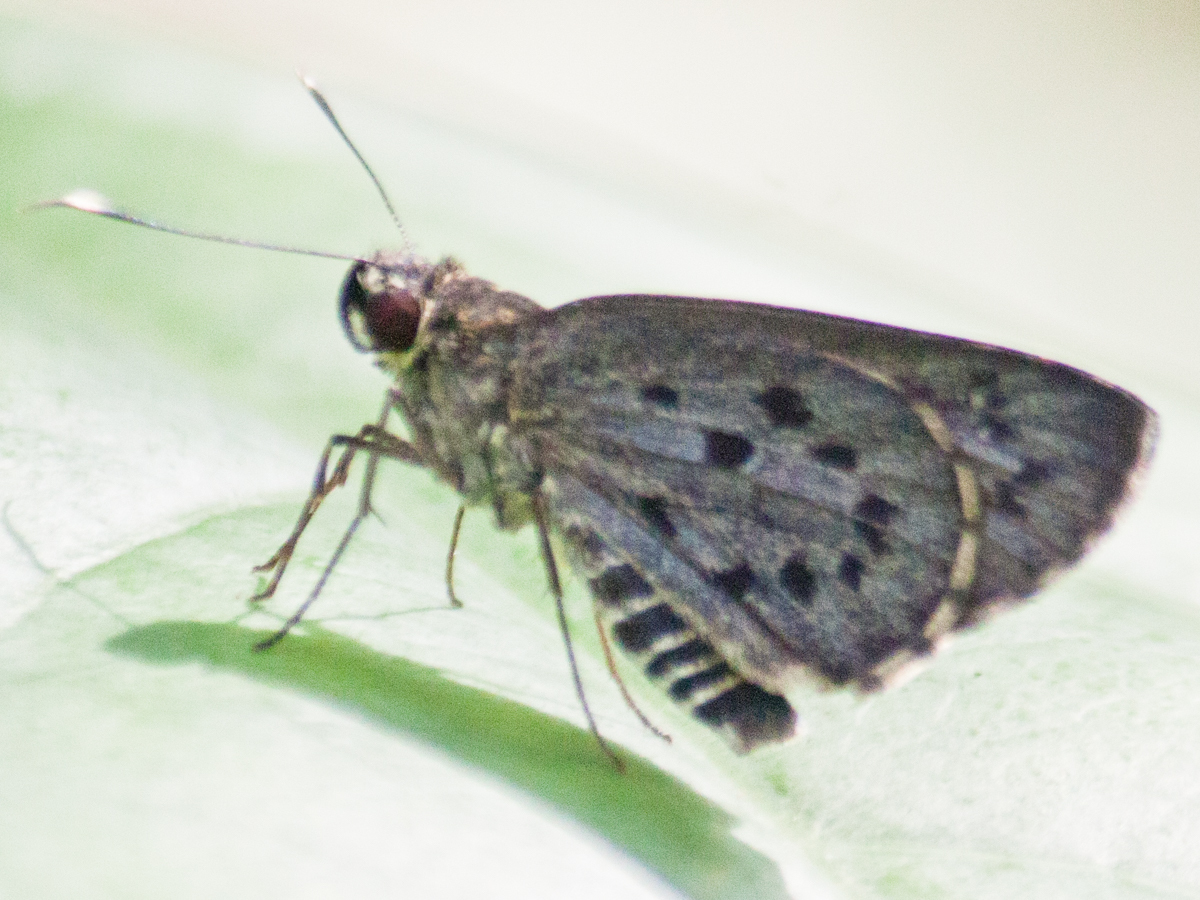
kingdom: Animalia
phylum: Arthropoda
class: Insecta
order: Lepidoptera
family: Hesperiidae
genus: Salanoemia
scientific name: Salanoemia sala
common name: Maculate lancer
